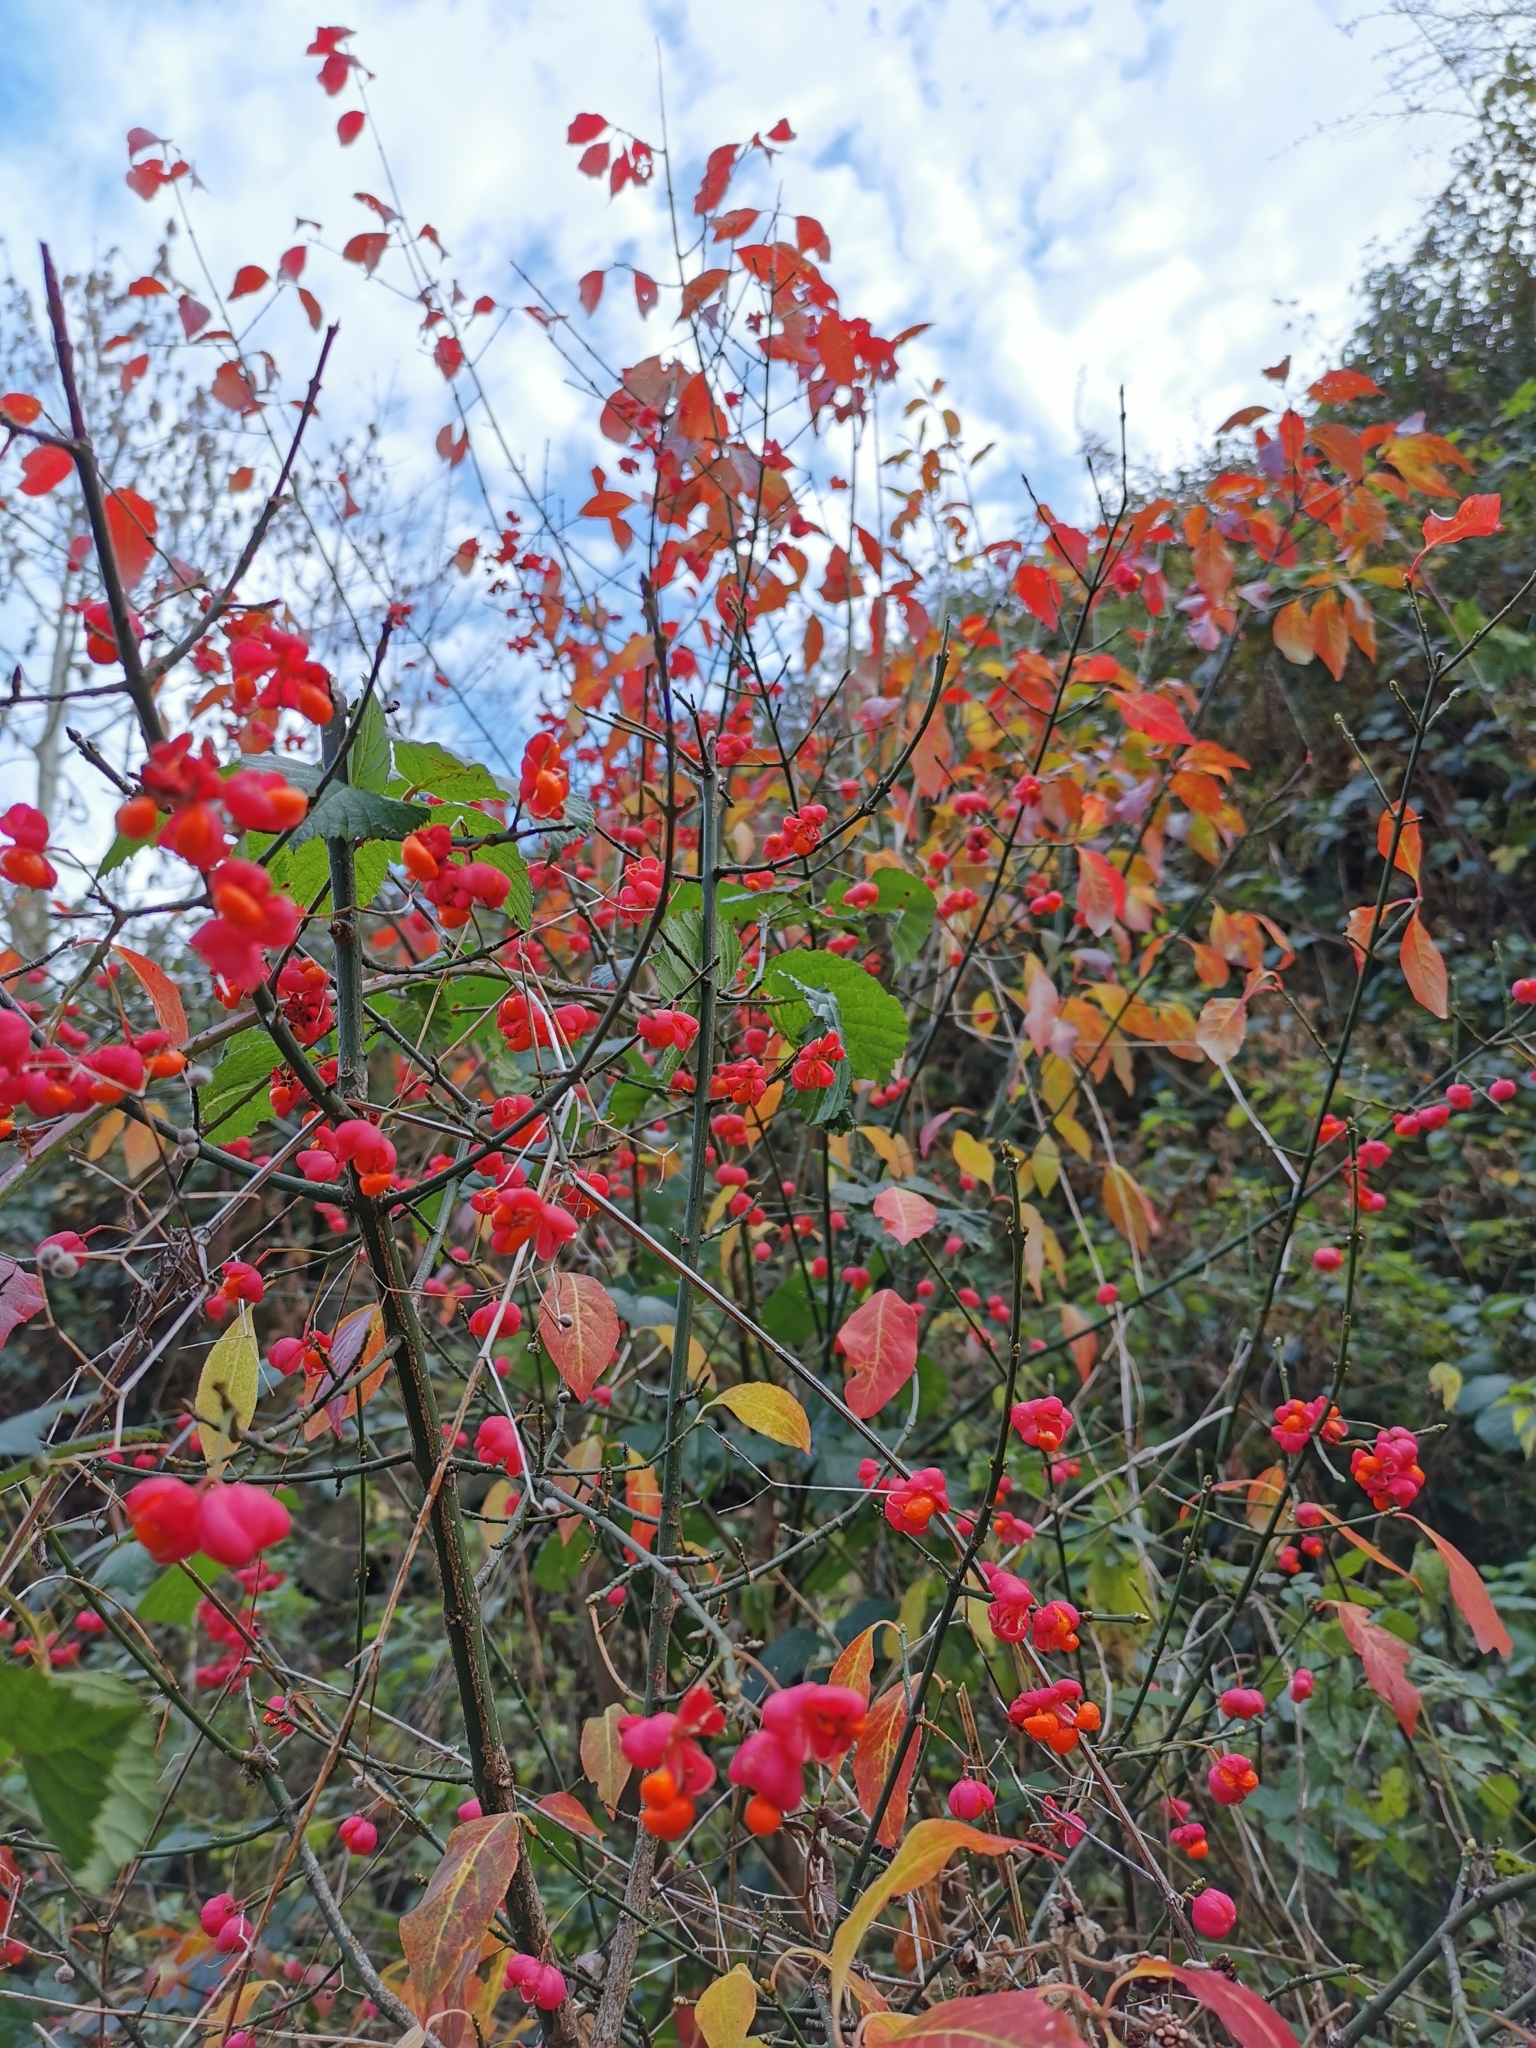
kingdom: Plantae
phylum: Tracheophyta
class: Magnoliopsida
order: Celastrales
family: Celastraceae
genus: Euonymus
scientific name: Euonymus europaeus
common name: Spindle
